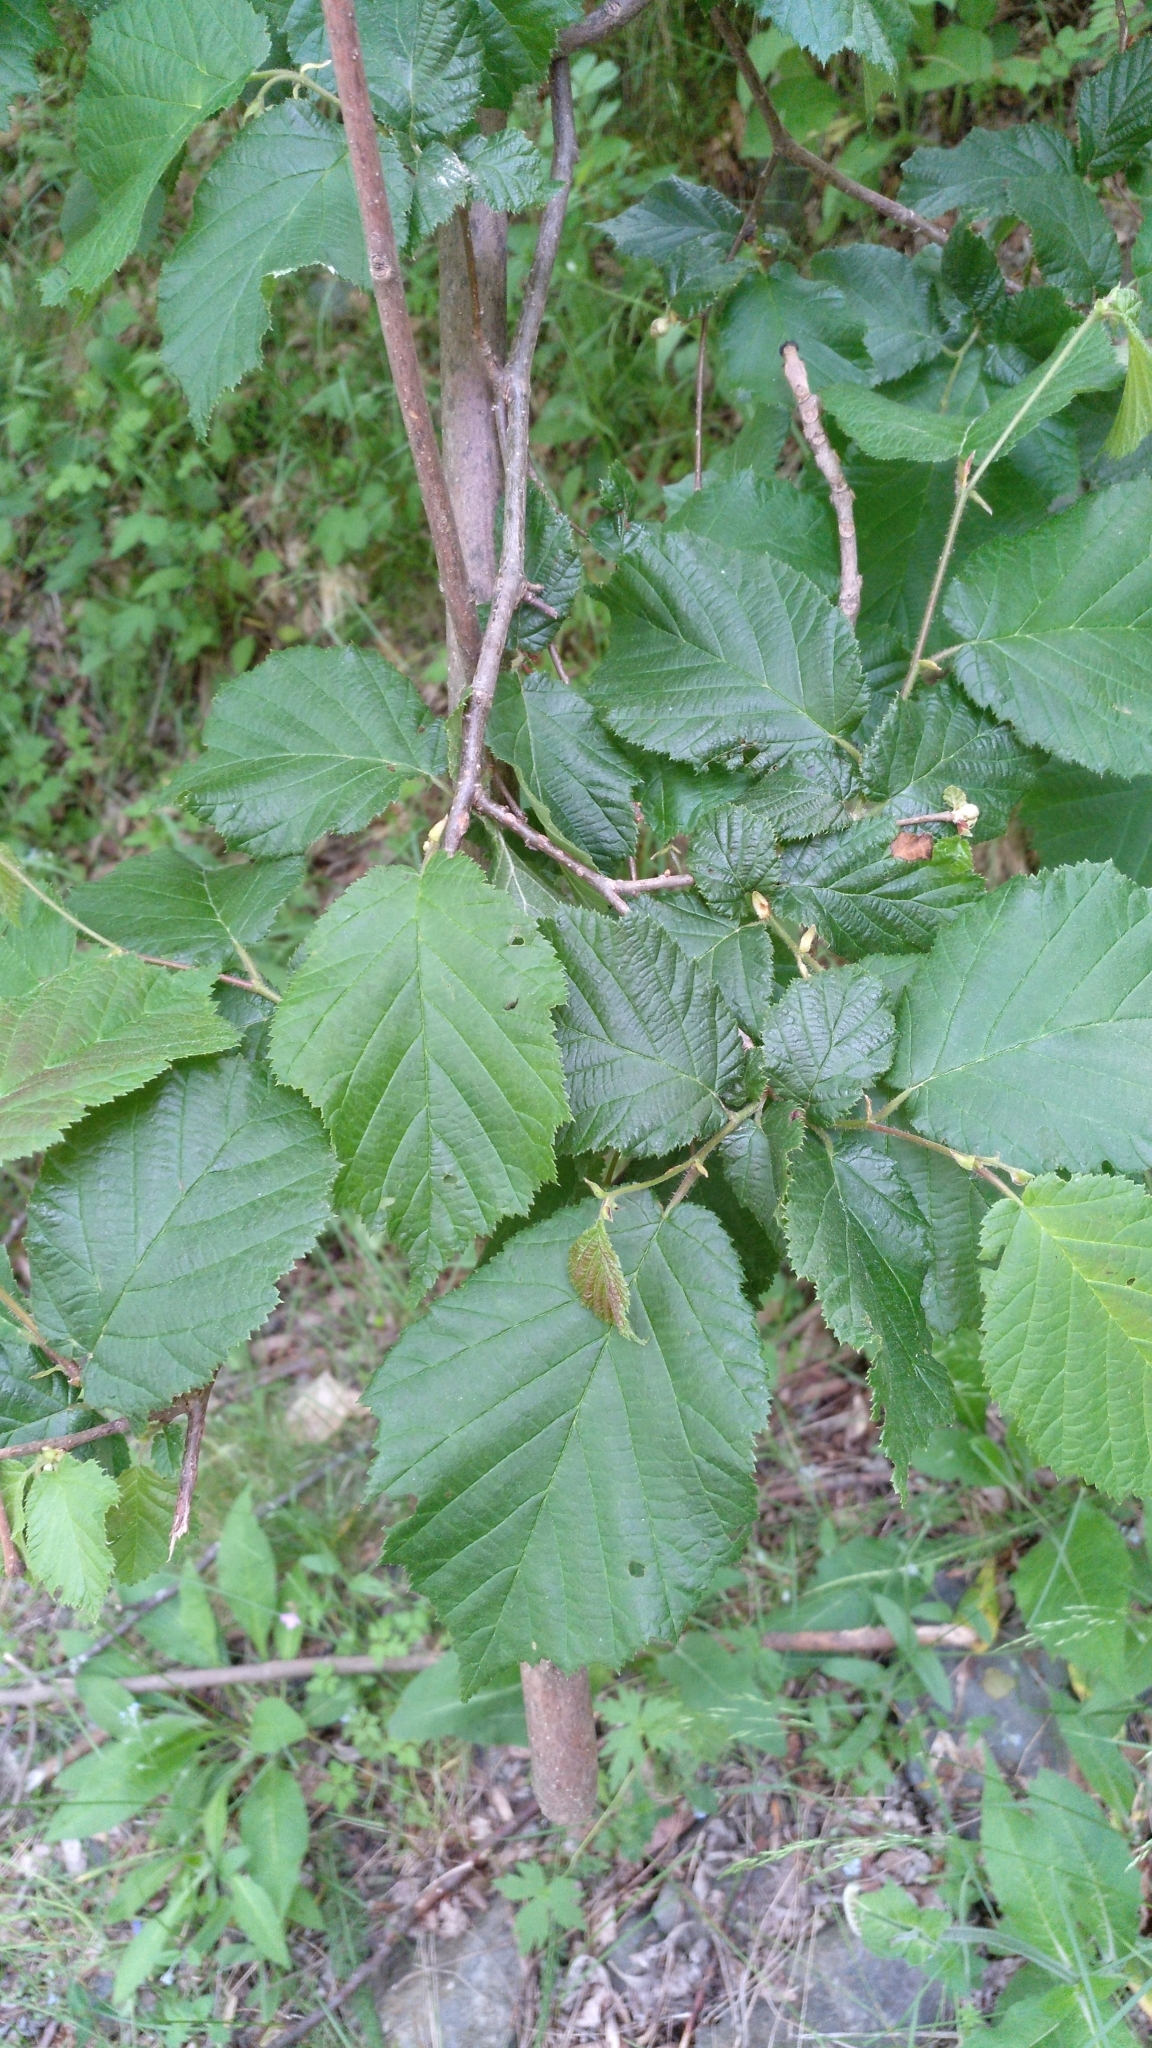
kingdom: Plantae
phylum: Tracheophyta
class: Magnoliopsida
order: Fagales
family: Betulaceae
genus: Corylus
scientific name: Corylus avellana
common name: European hazel
